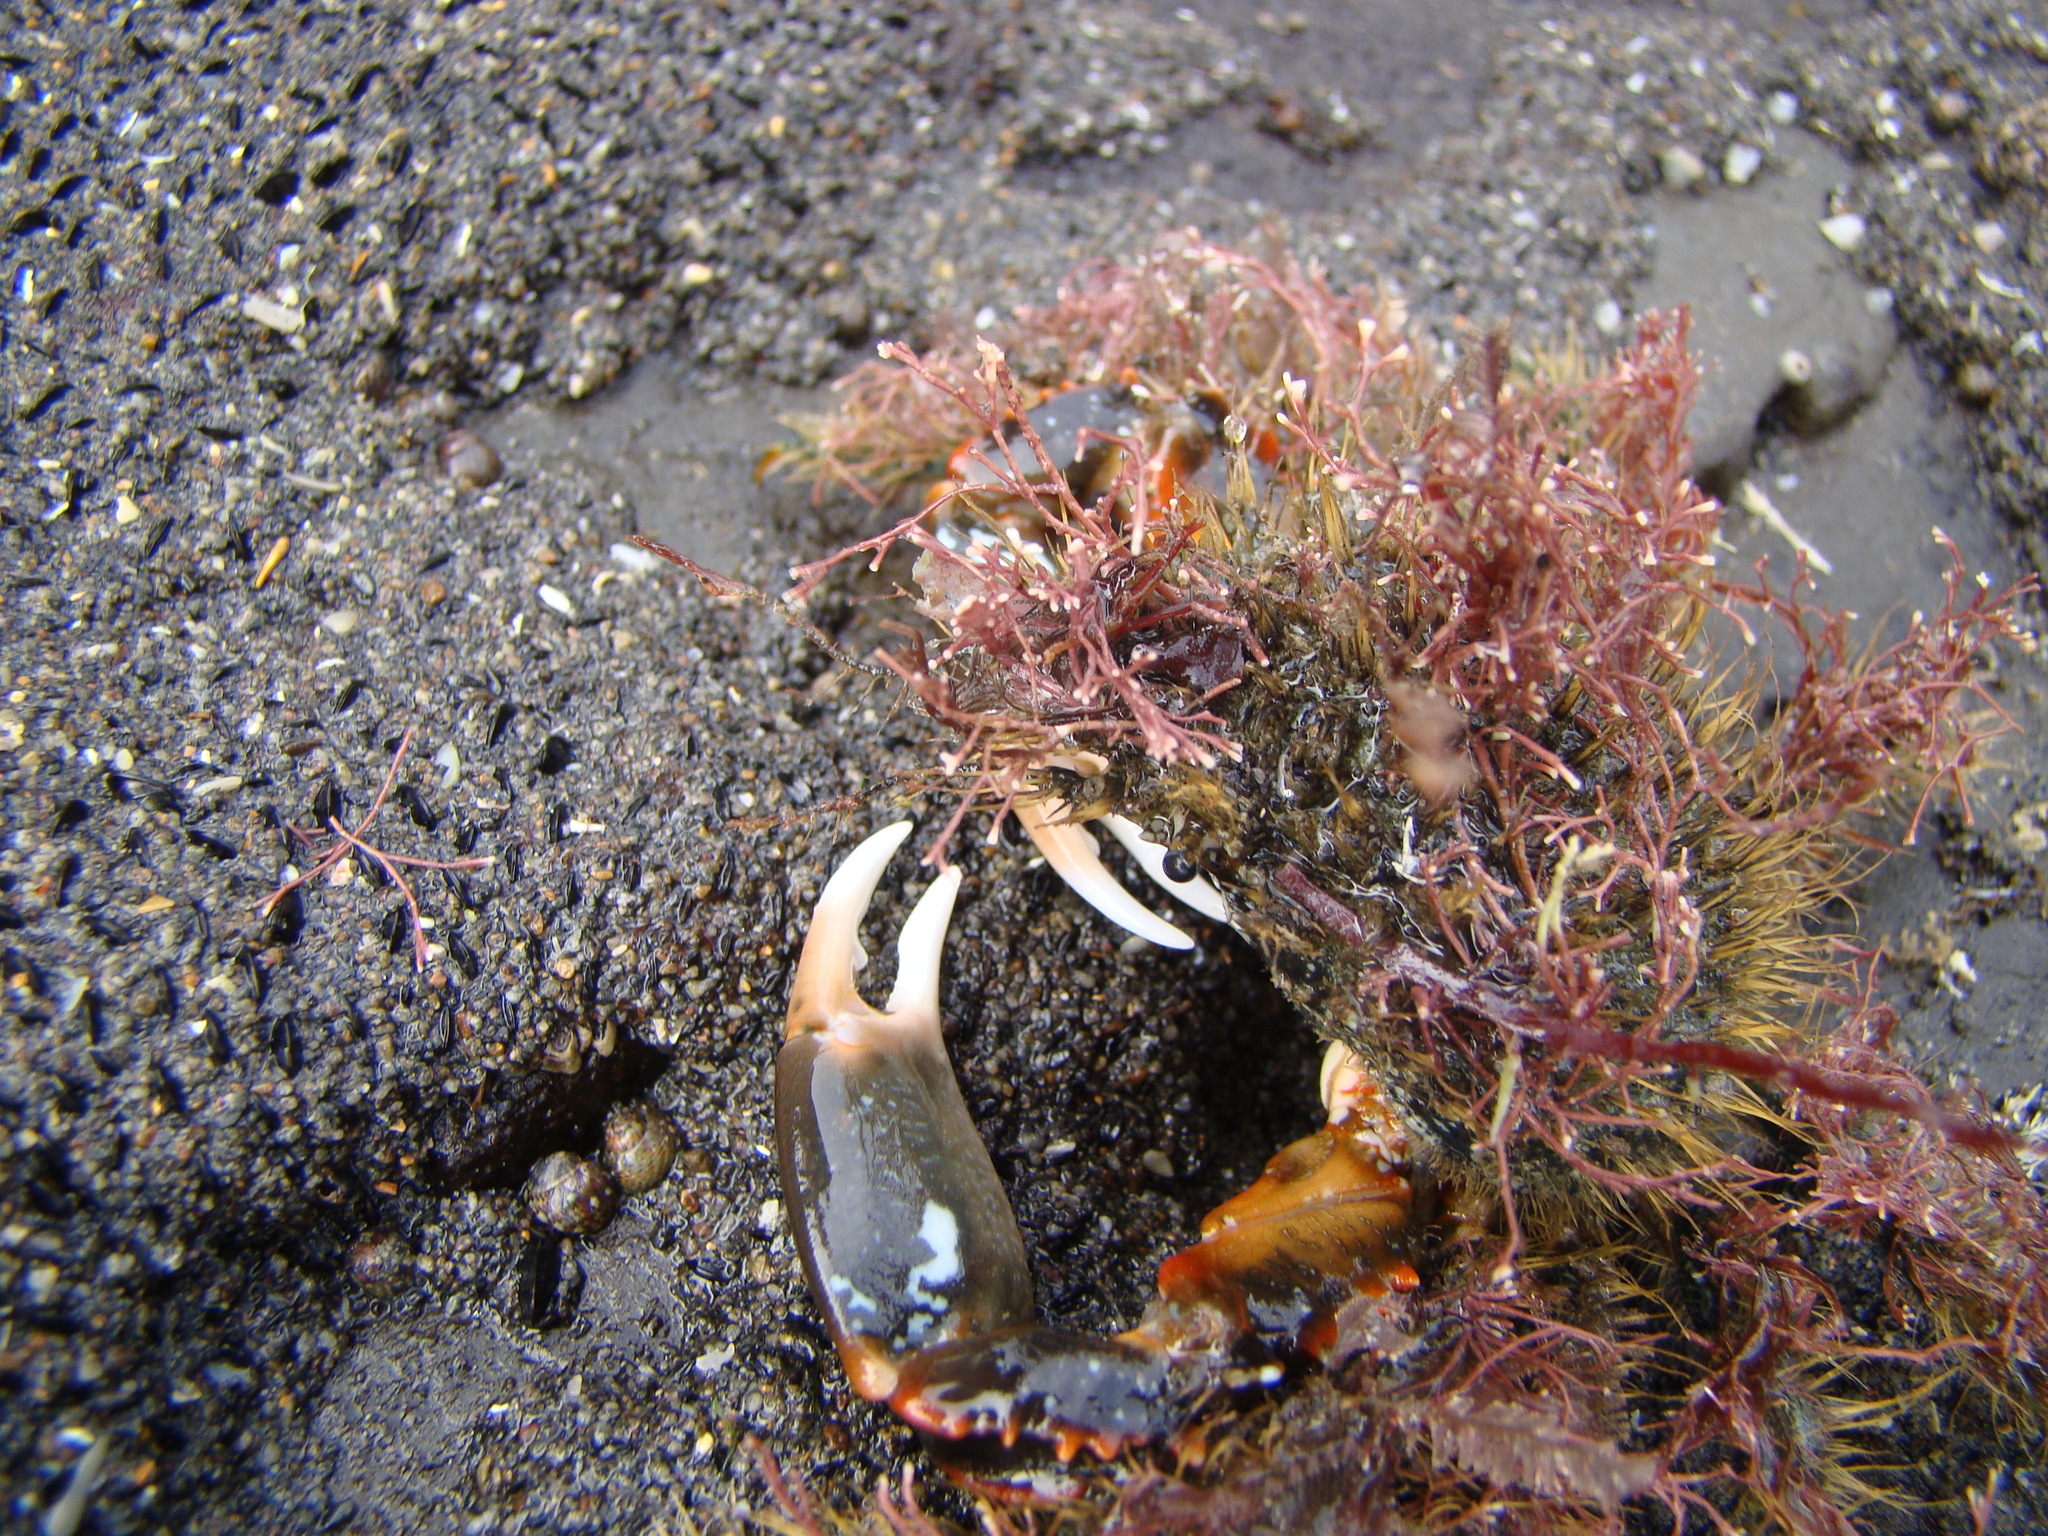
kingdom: Animalia
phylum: Arthropoda
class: Malacostraca
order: Decapoda
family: Majidae
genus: Notomithrax
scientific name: Notomithrax ursus
